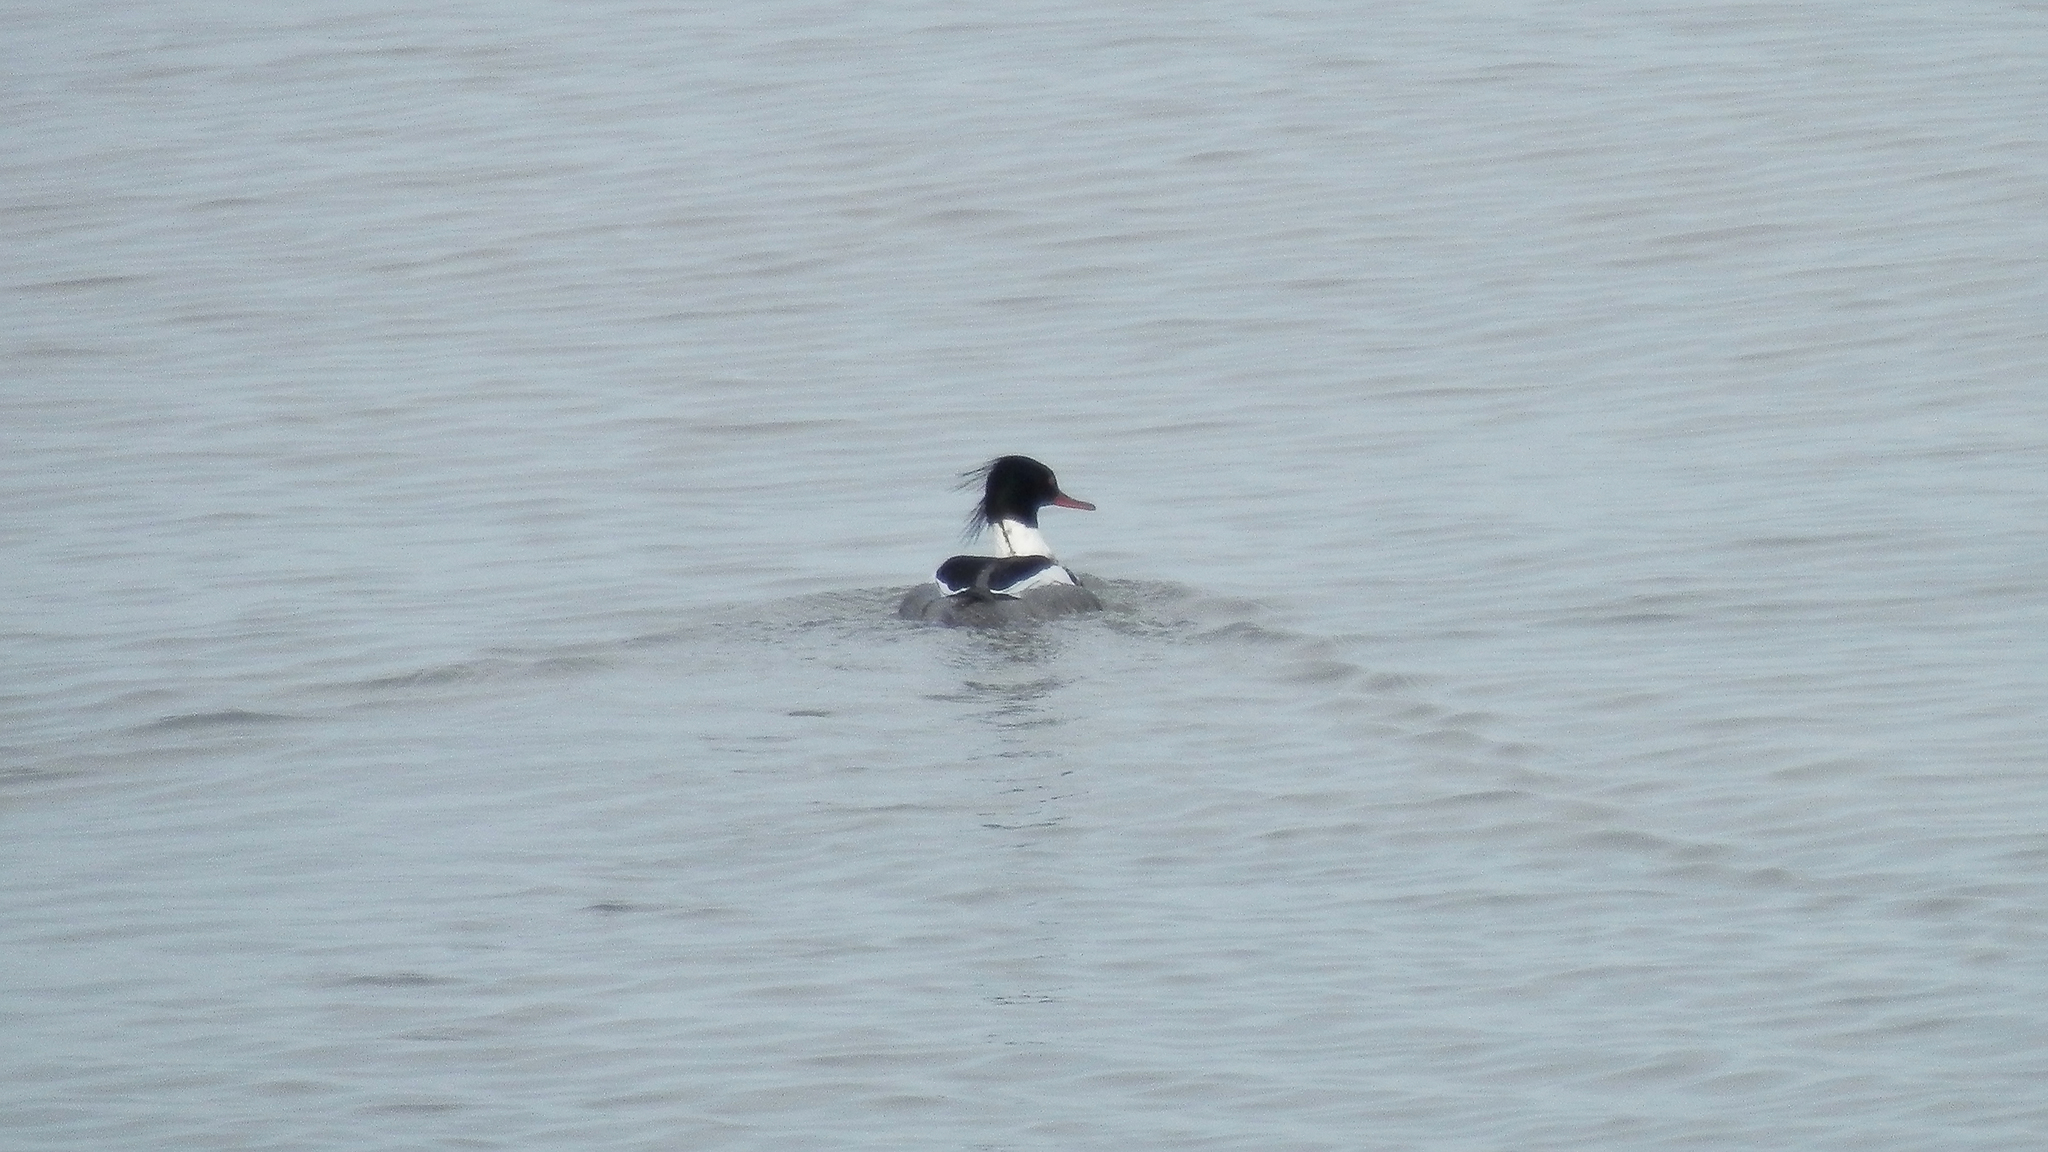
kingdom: Animalia
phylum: Chordata
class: Aves
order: Anseriformes
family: Anatidae
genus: Mergus
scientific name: Mergus serrator
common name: Red-breasted merganser
